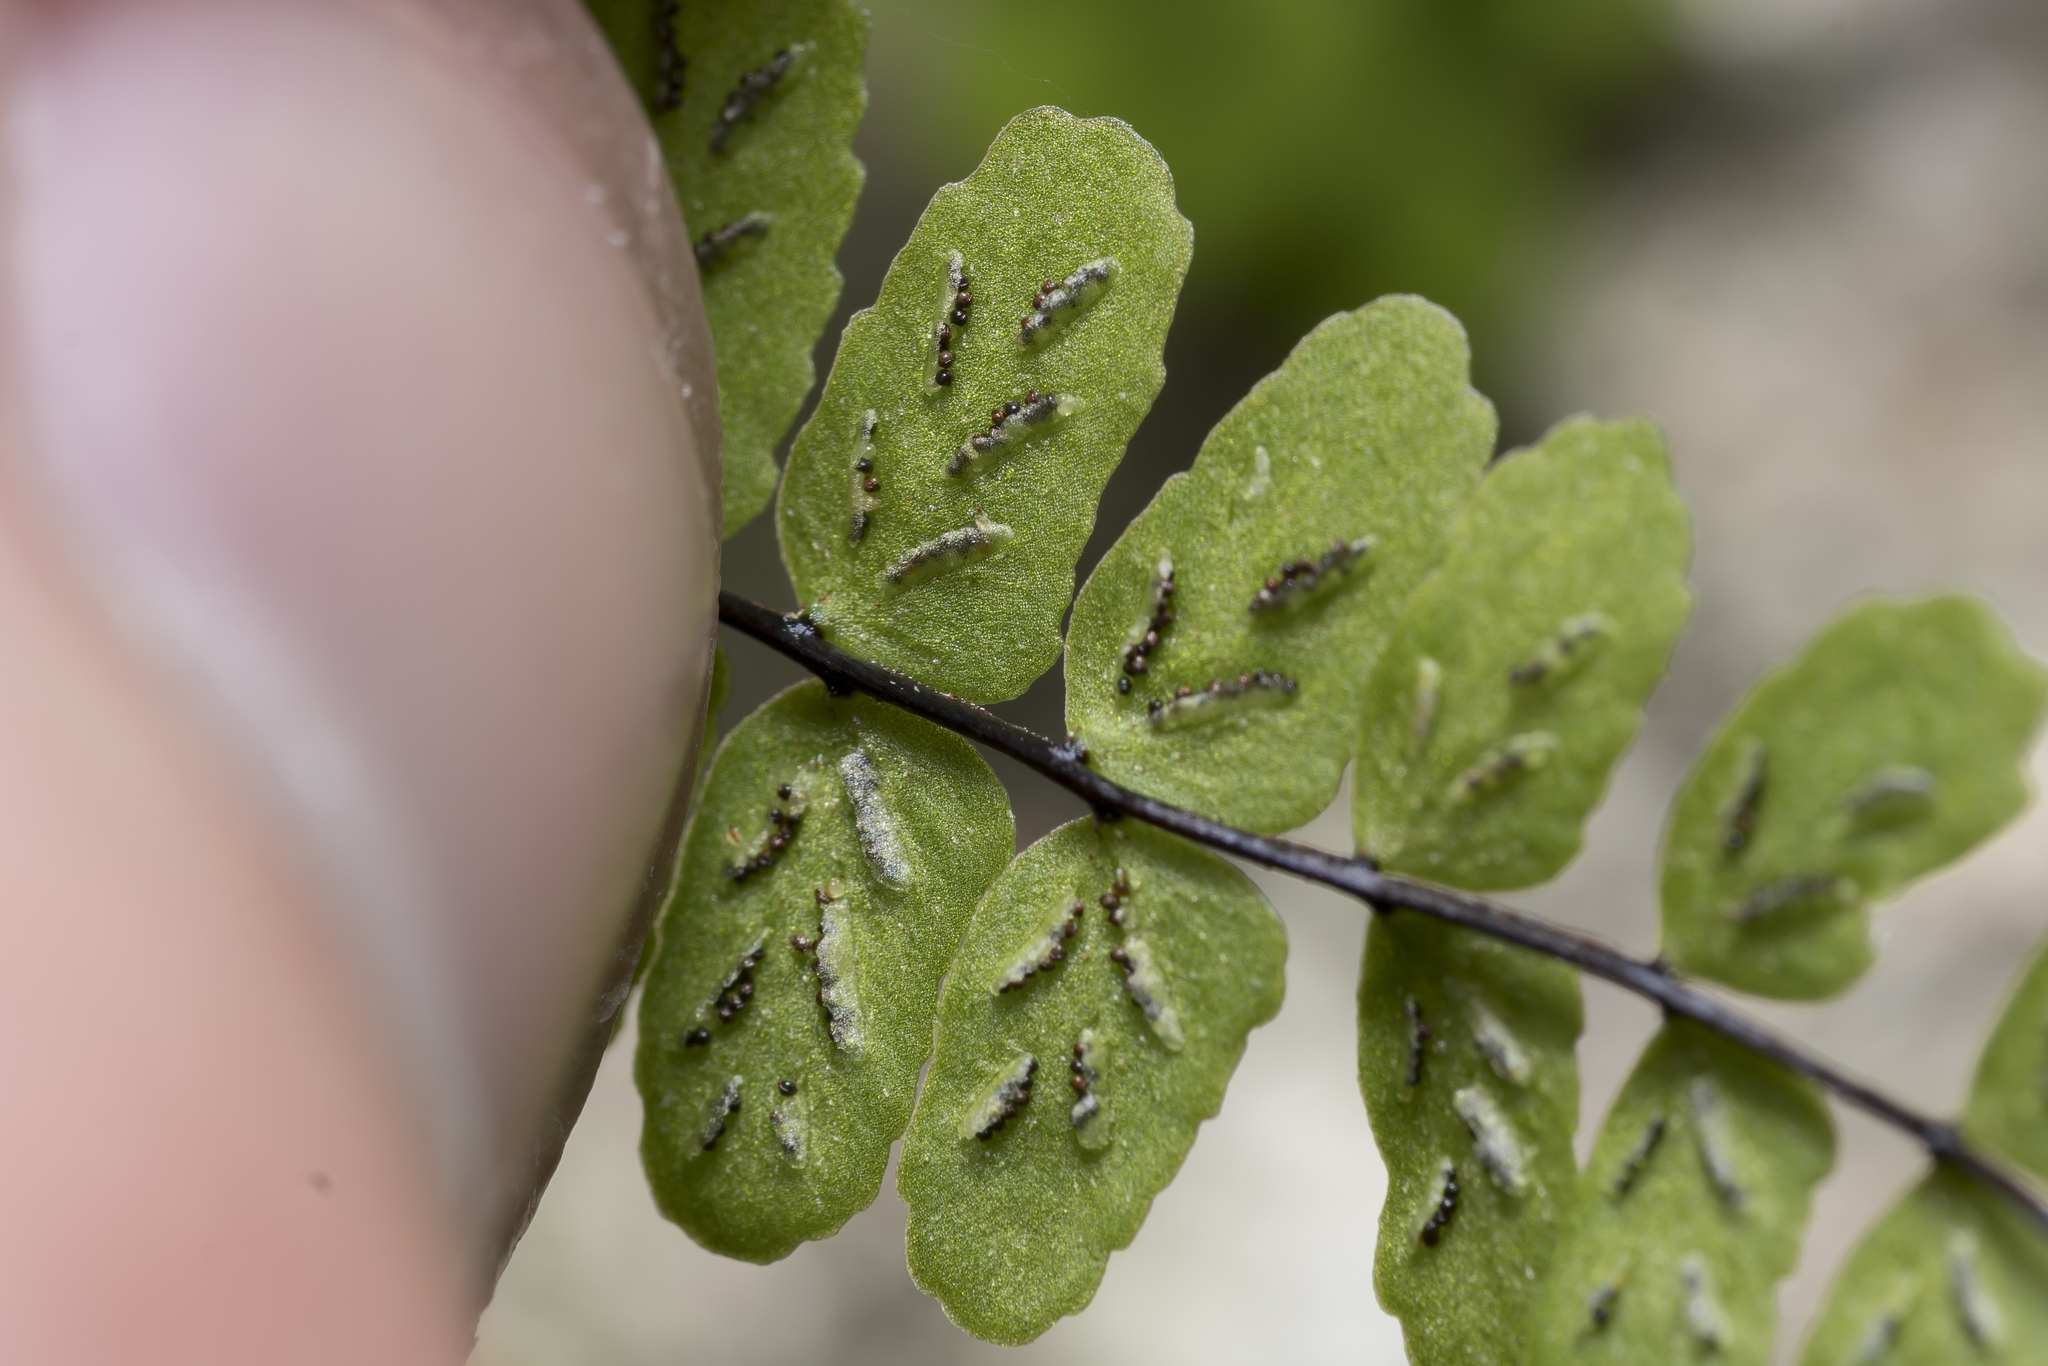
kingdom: Plantae
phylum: Tracheophyta
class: Polypodiopsida
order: Polypodiales
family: Aspleniaceae
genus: Asplenium
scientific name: Asplenium trichomanes
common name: Maidenhair spleenwort
